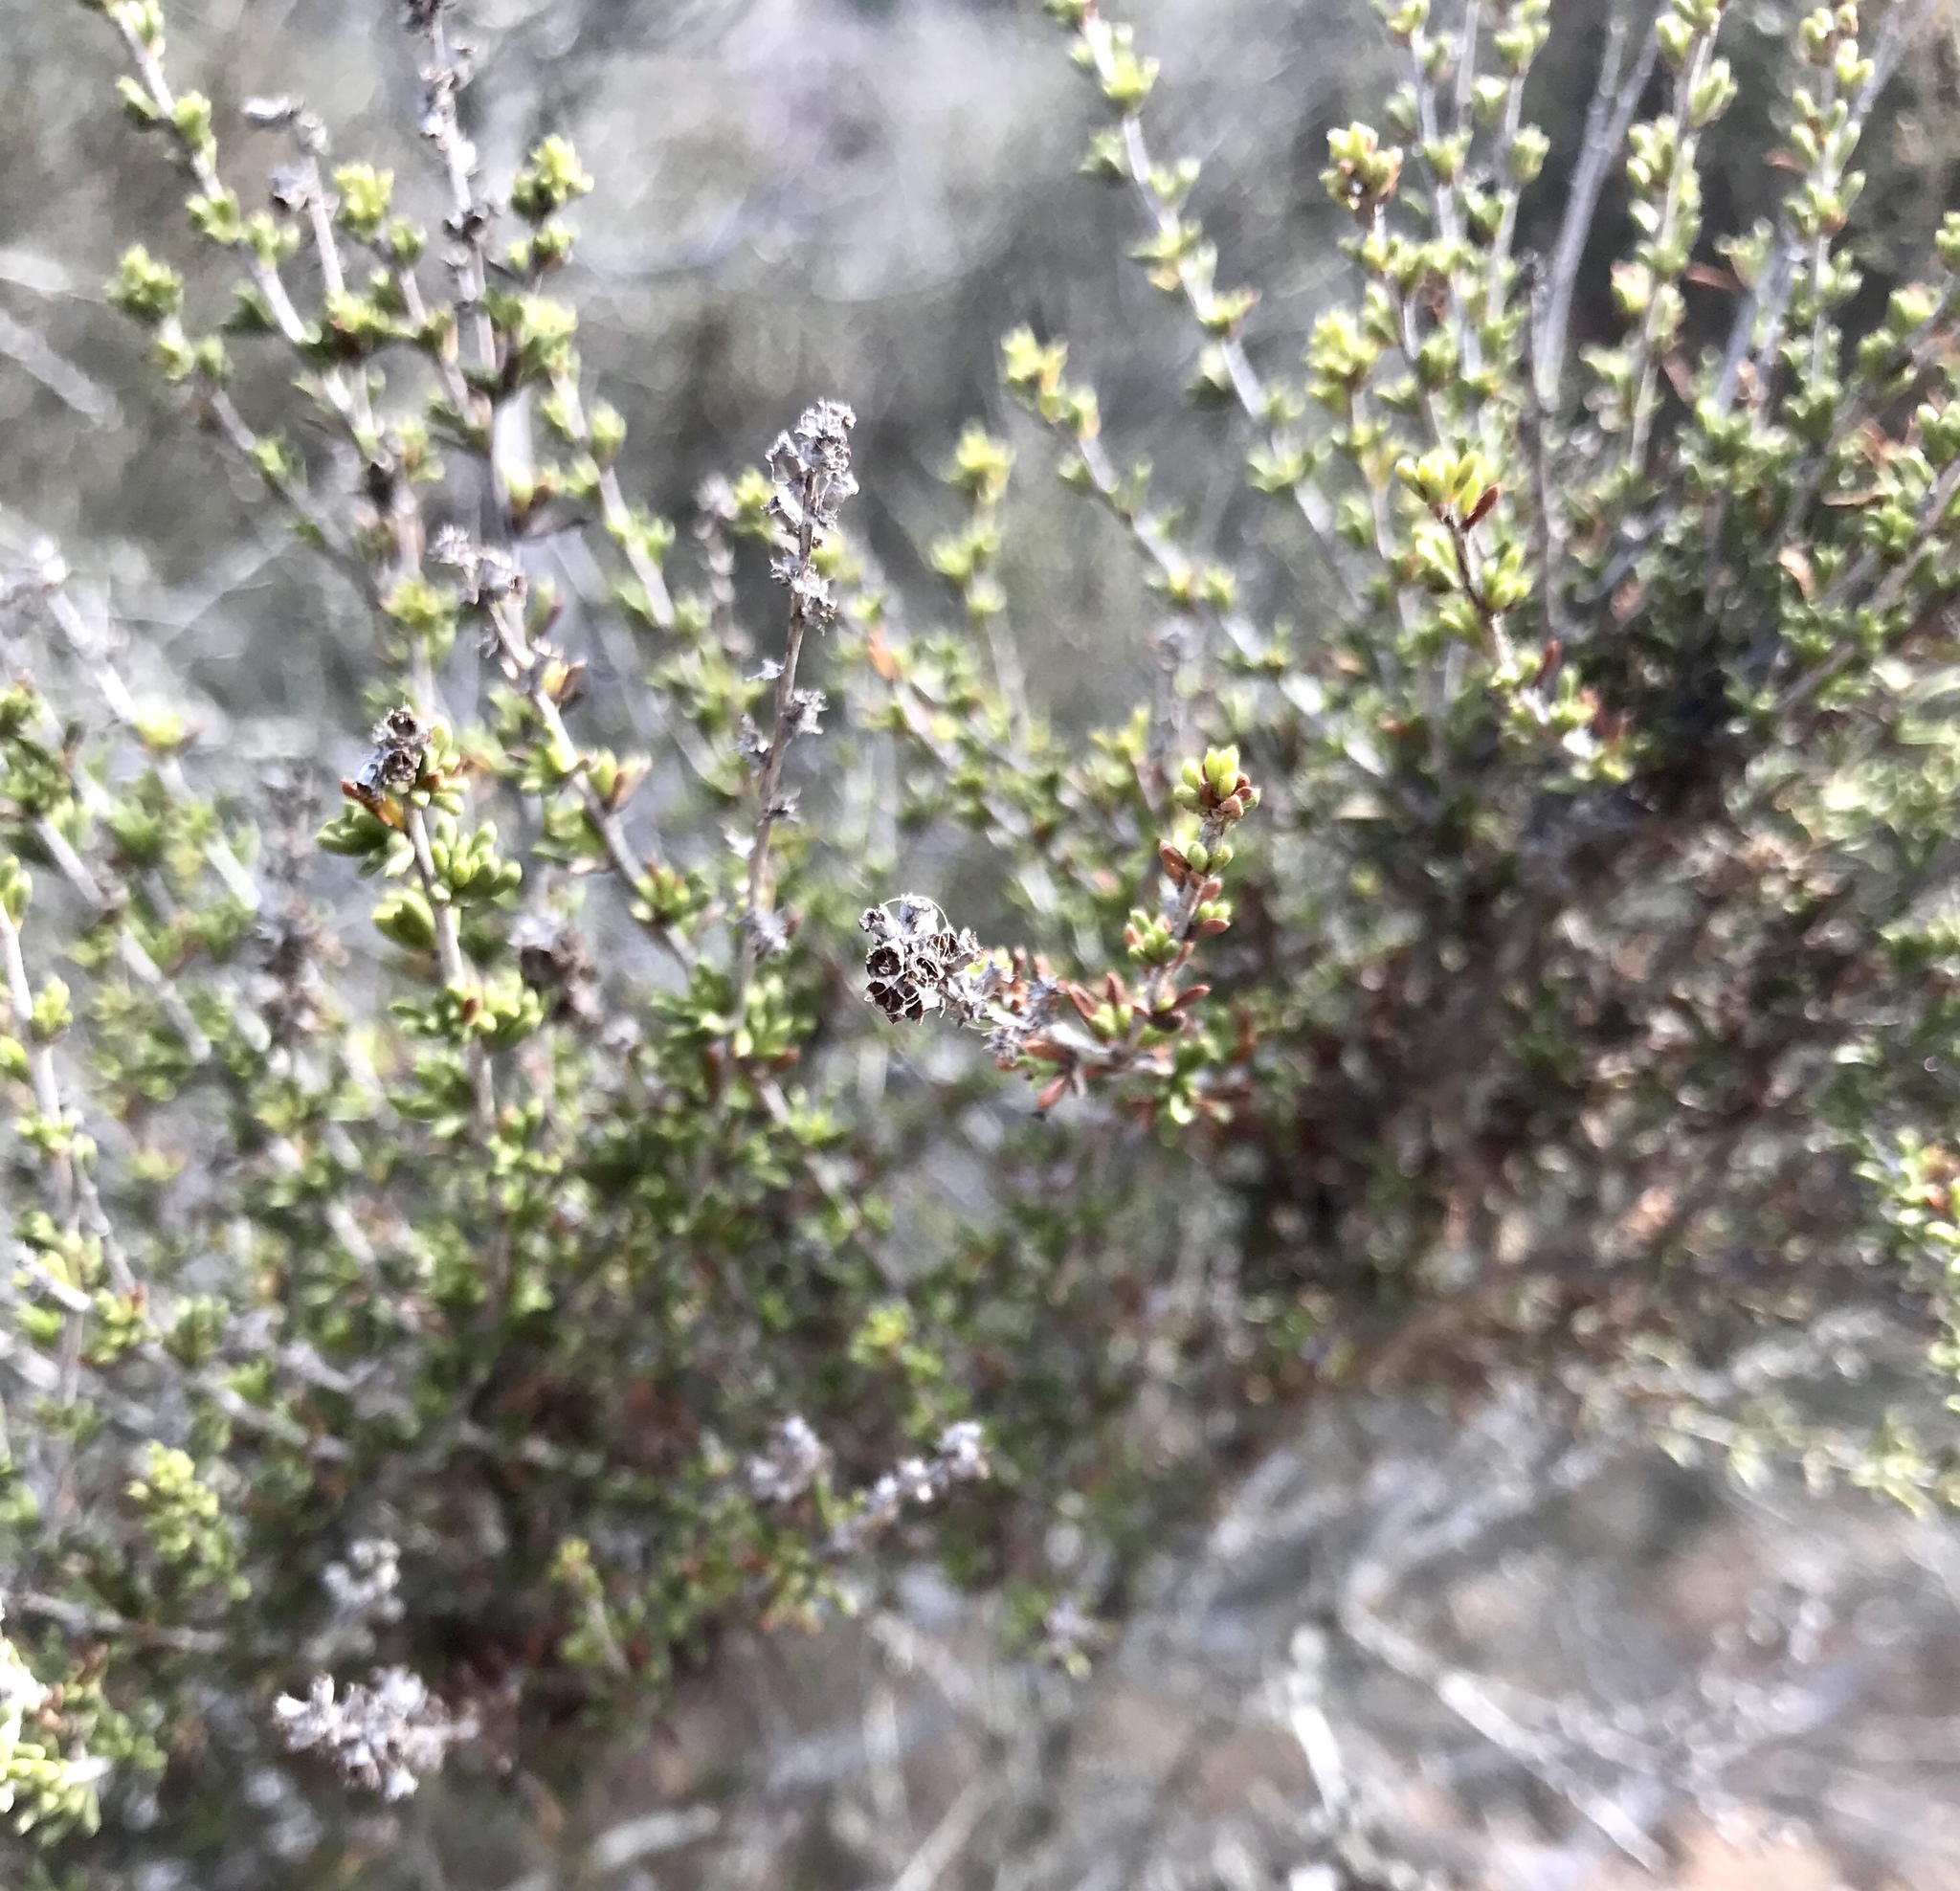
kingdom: Plantae
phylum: Tracheophyta
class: Magnoliopsida
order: Rosales
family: Rosaceae
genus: Adenostoma
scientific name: Adenostoma fasciculatum
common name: Chamise
